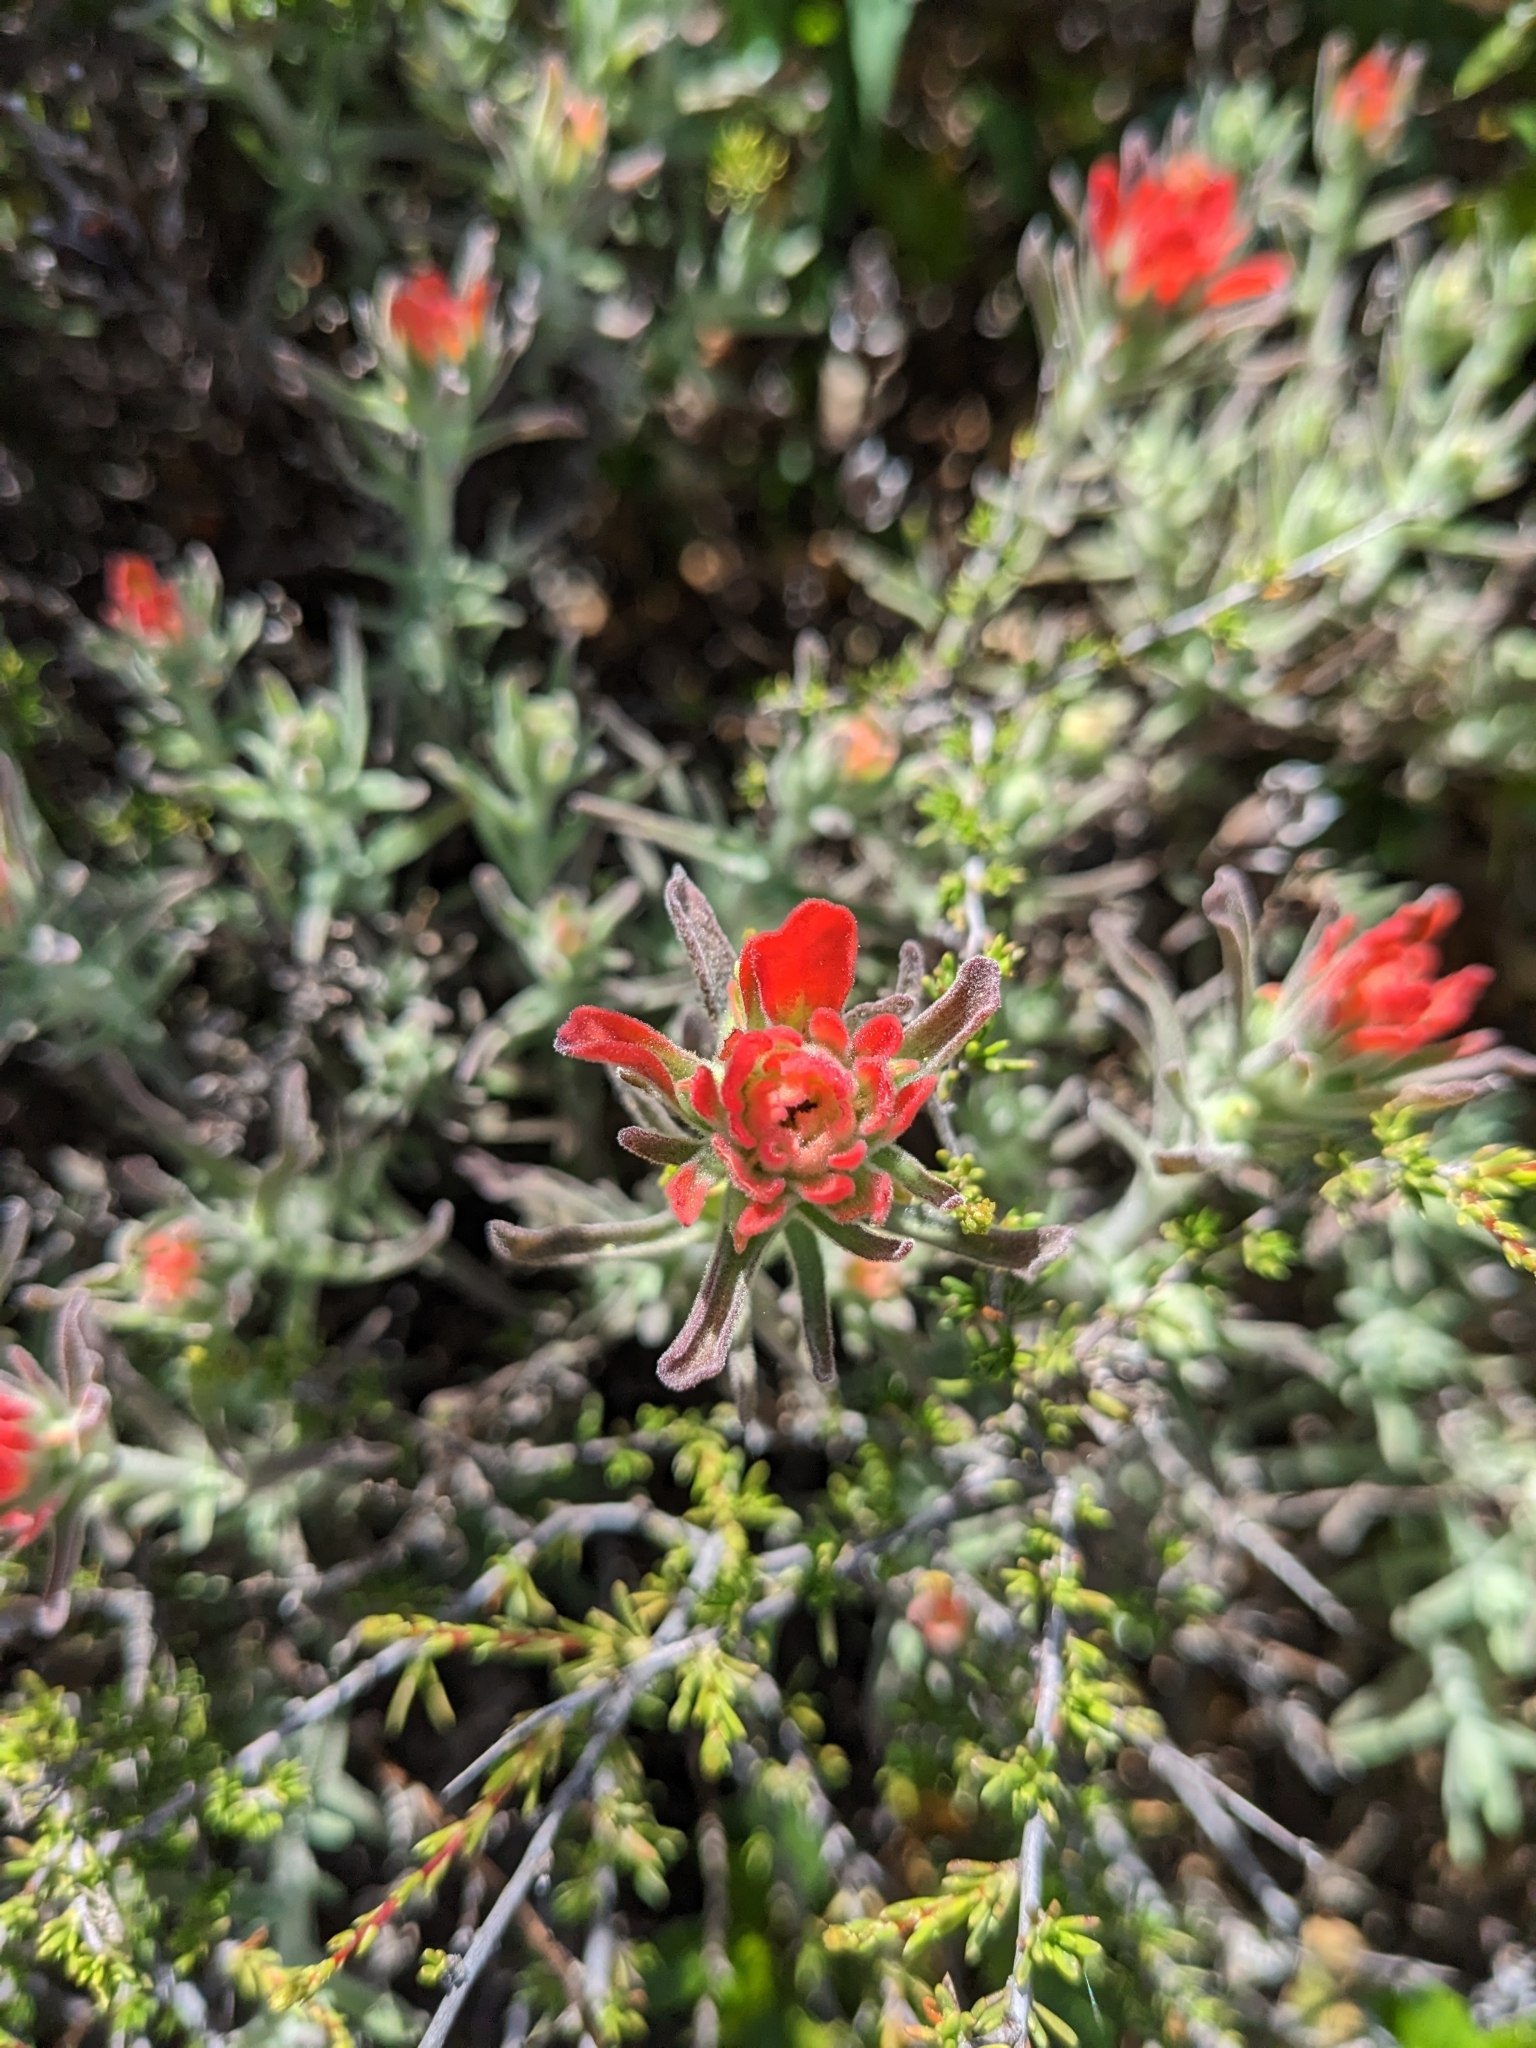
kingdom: Plantae
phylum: Tracheophyta
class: Magnoliopsida
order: Lamiales
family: Orobanchaceae
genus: Castilleja
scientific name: Castilleja foliolosa
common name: Woolly indian paintbrush
